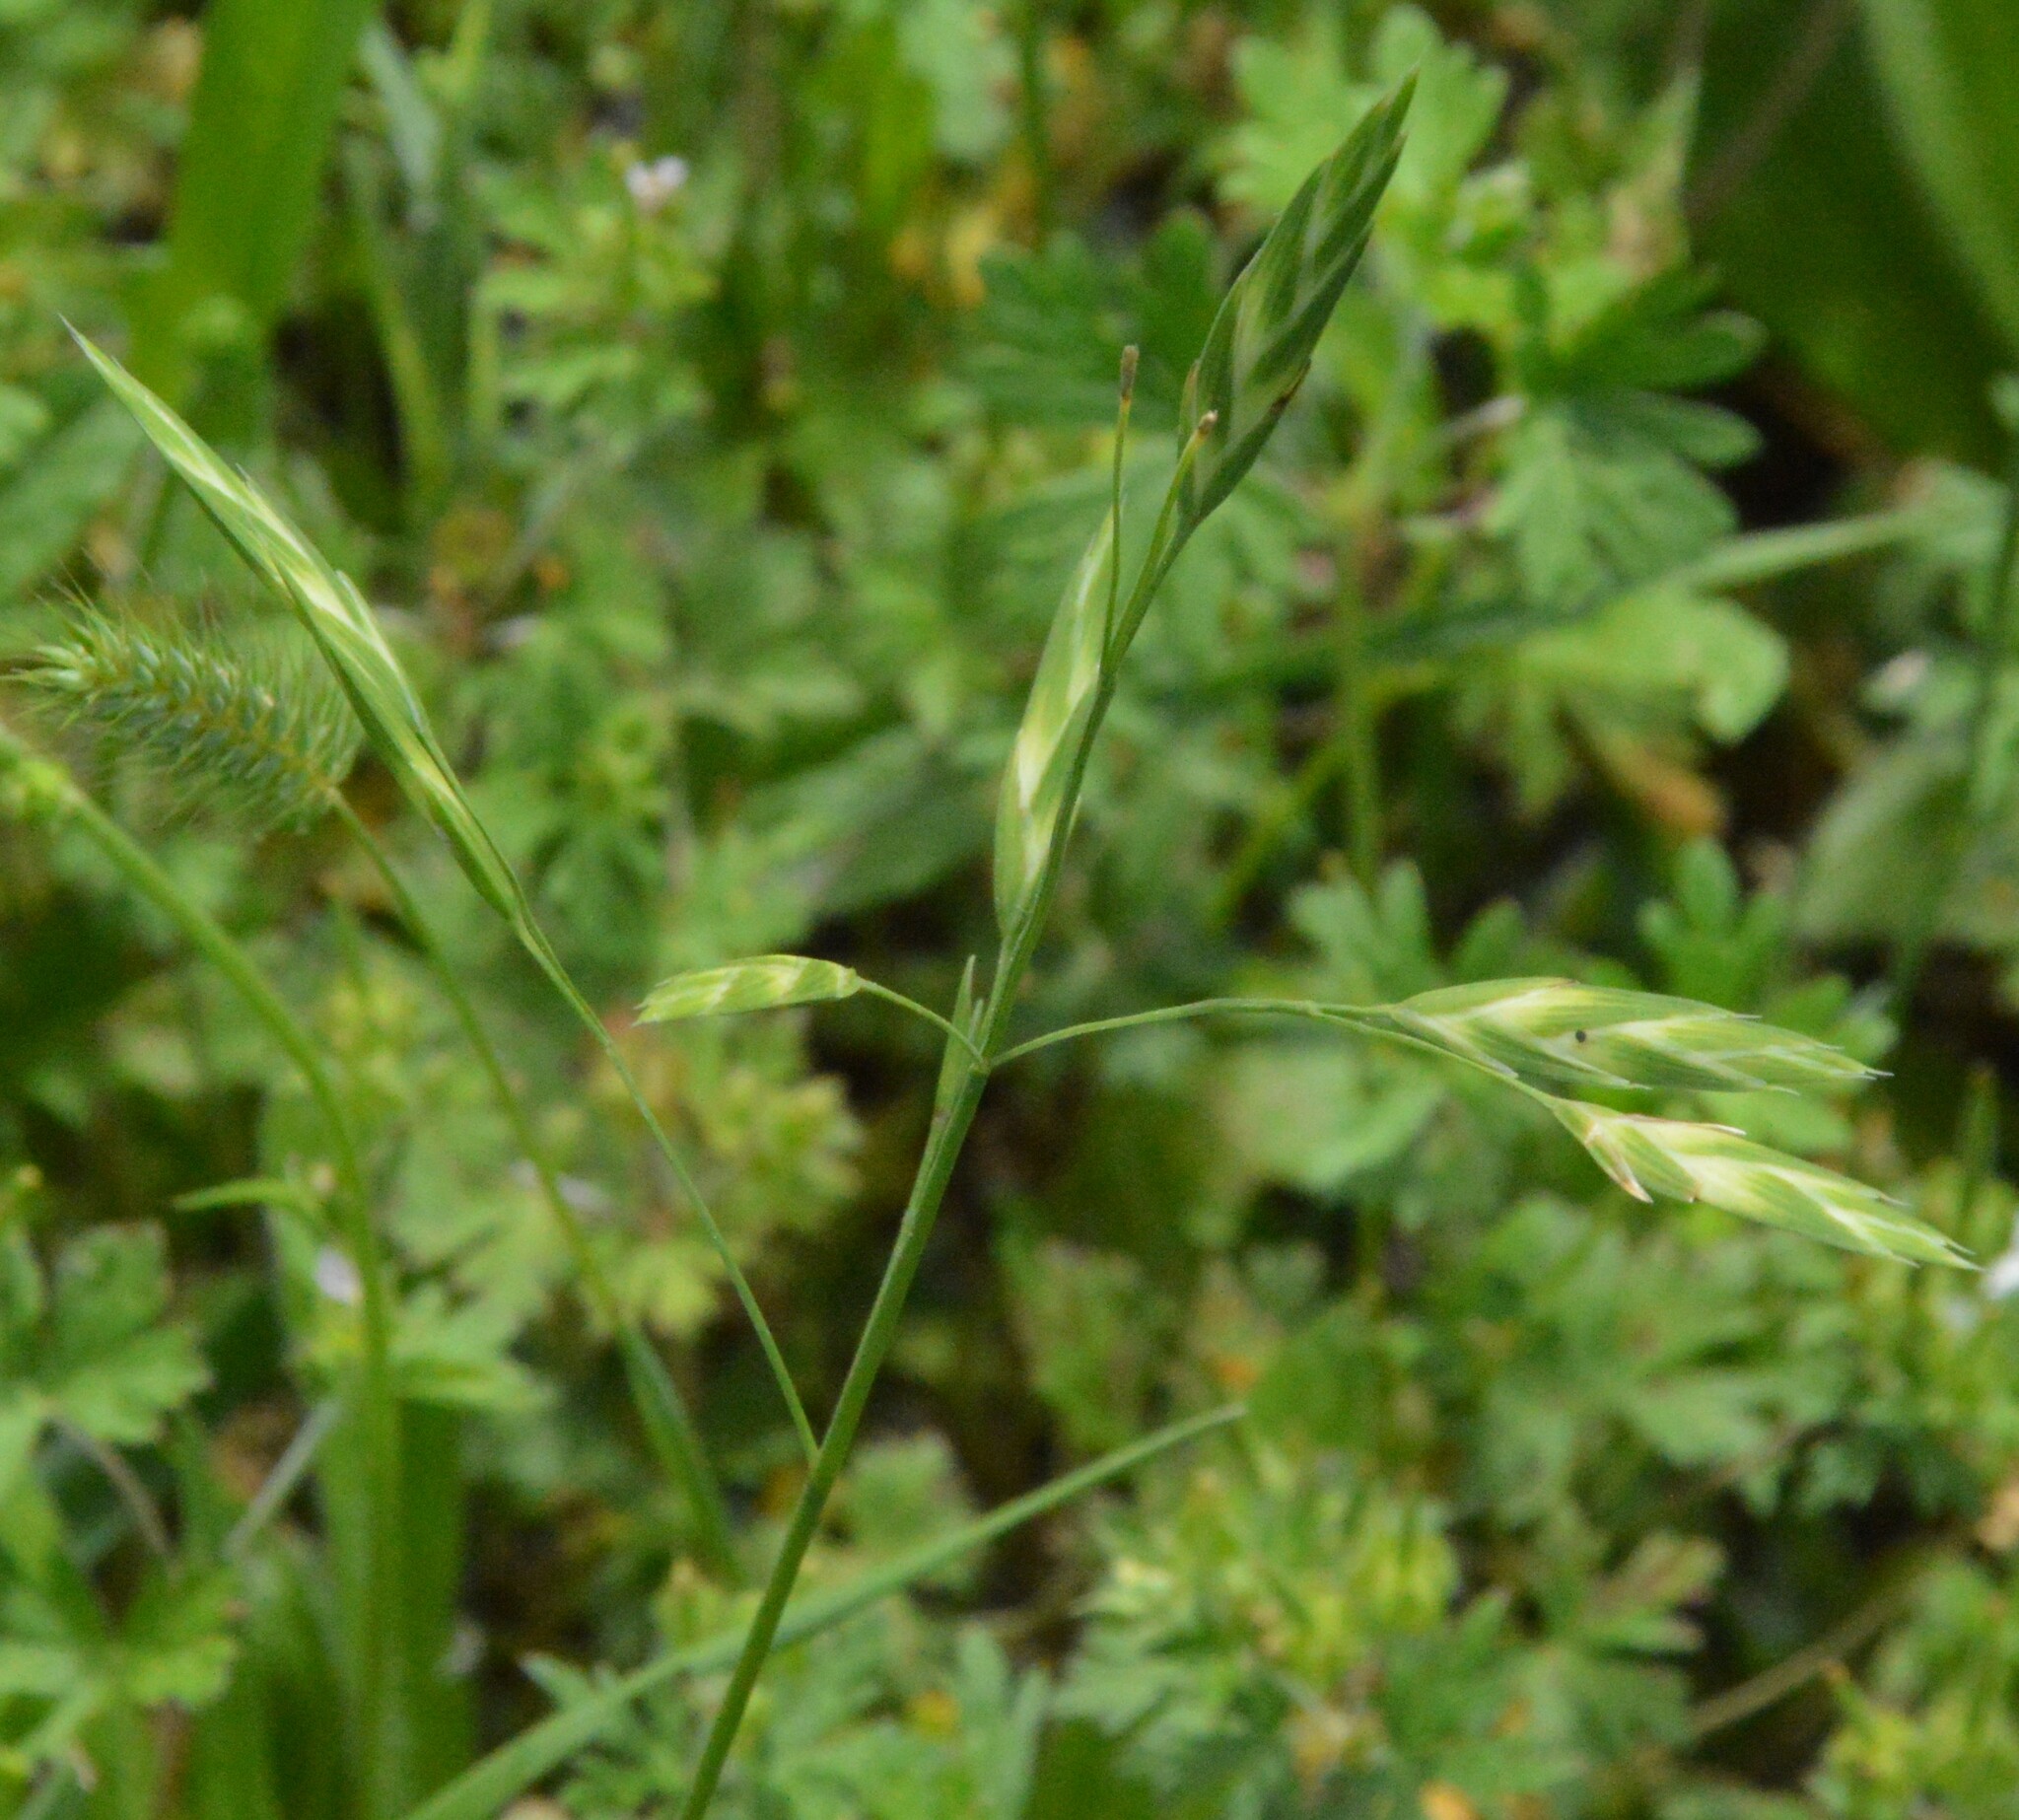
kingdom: Plantae
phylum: Tracheophyta
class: Liliopsida
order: Poales
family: Poaceae
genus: Bromus
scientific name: Bromus catharticus
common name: Rescuegrass
